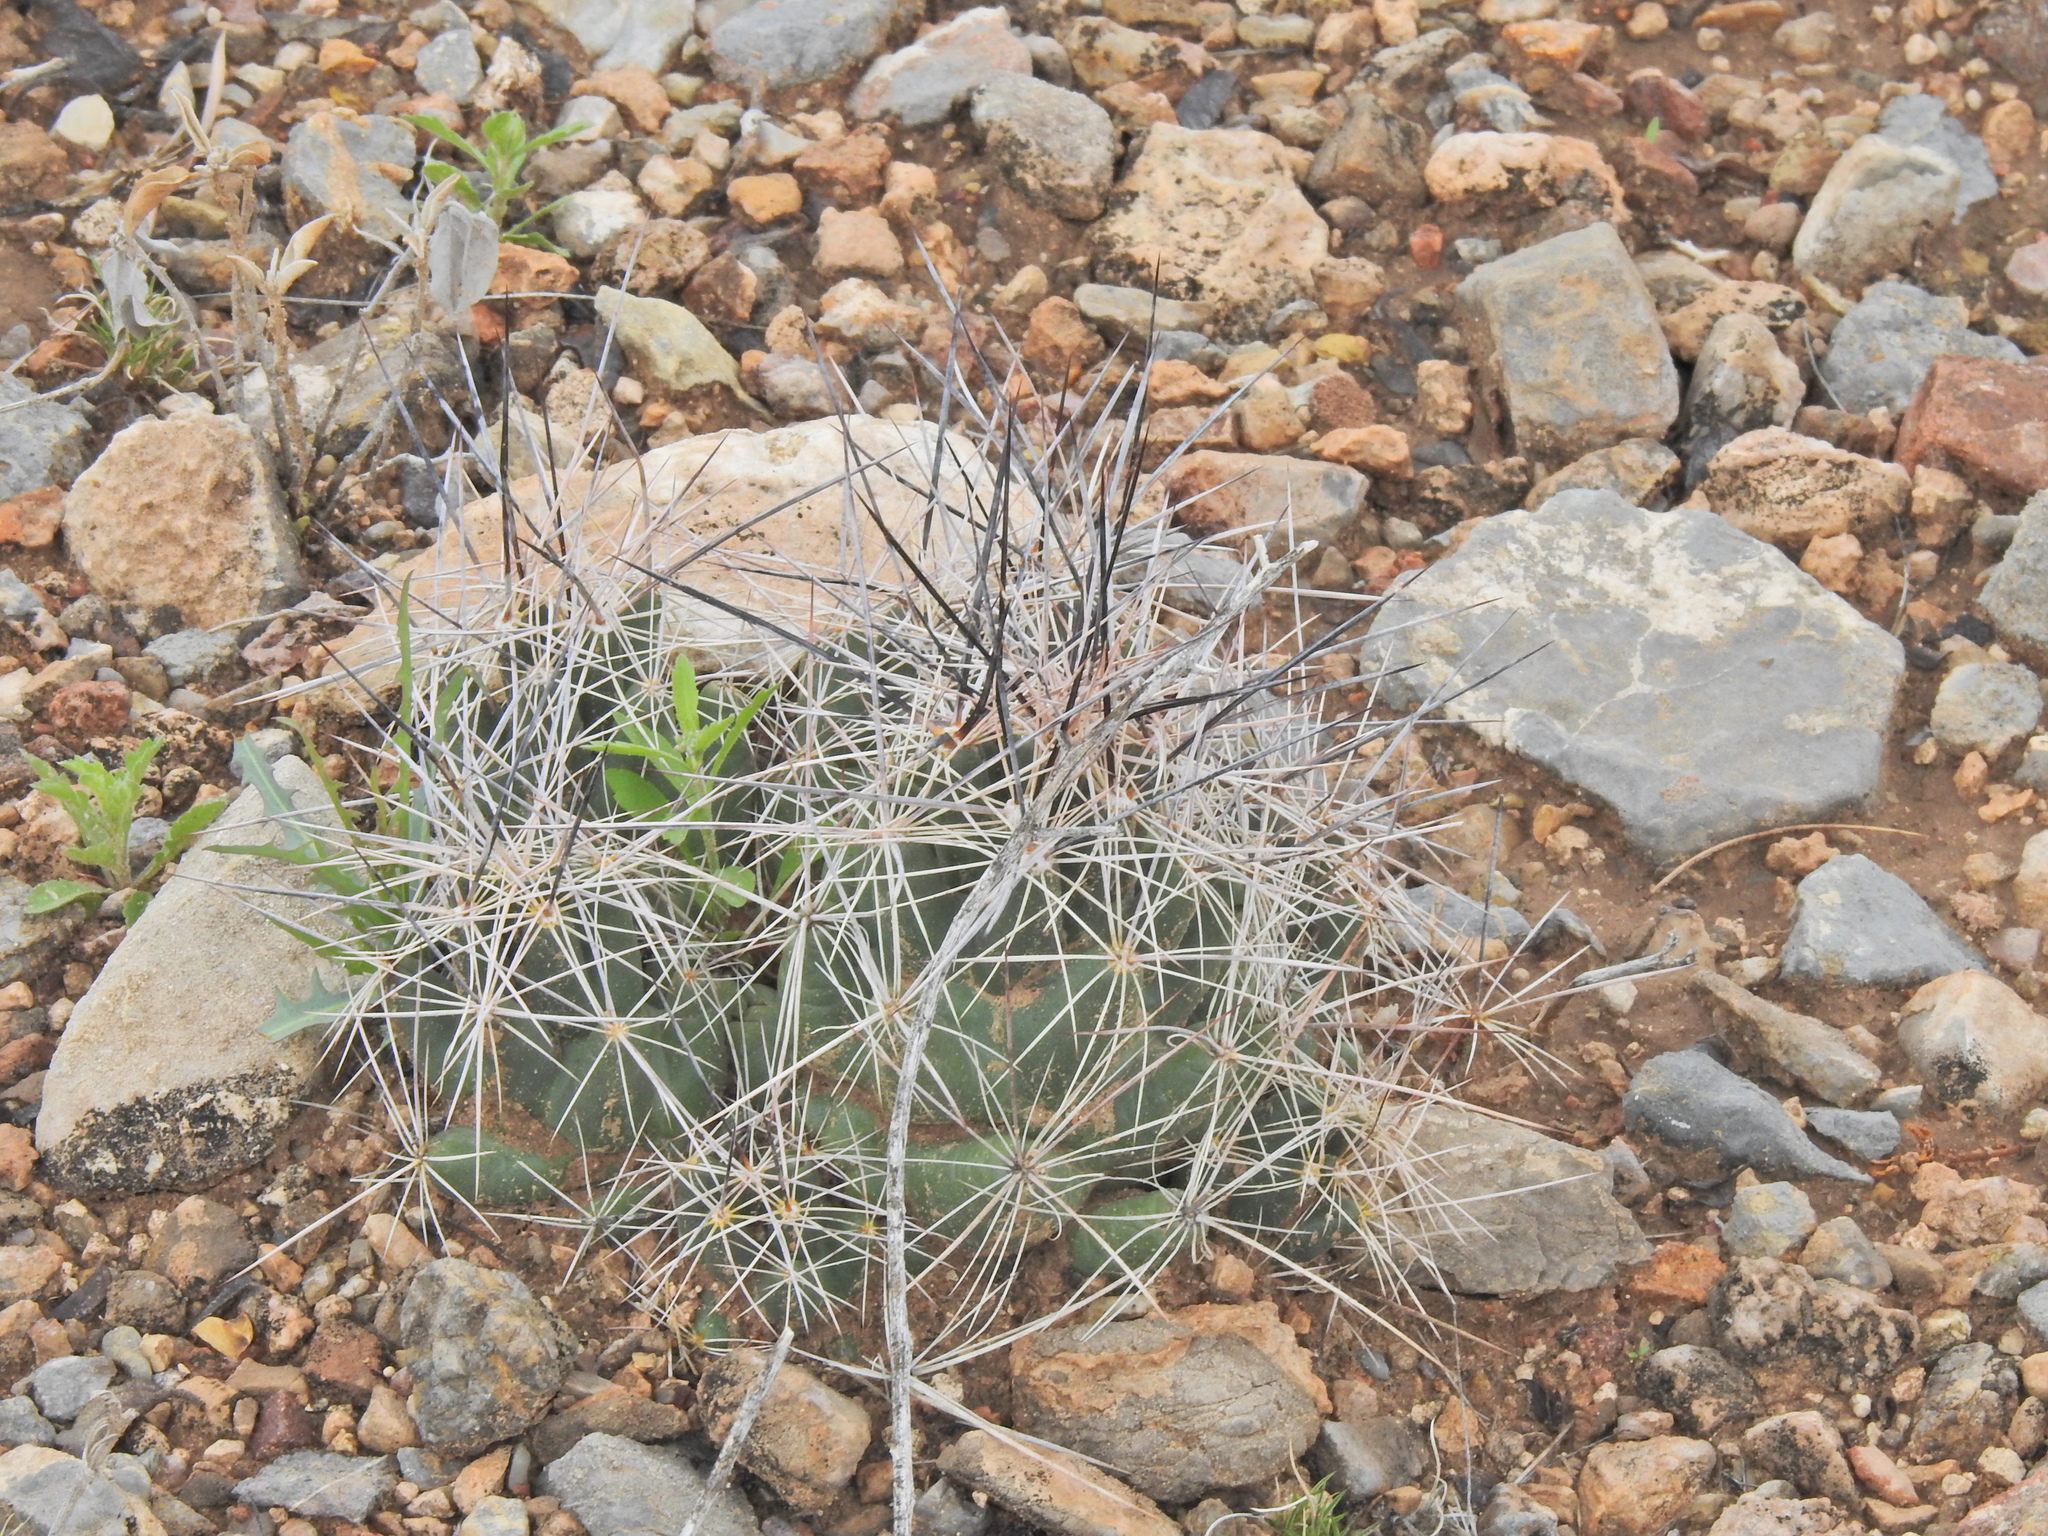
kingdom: Plantae
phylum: Tracheophyta
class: Magnoliopsida
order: Caryophyllales
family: Cactaceae
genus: Coryphantha
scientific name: Coryphantha macromeris
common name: Nipple beehive cactus
